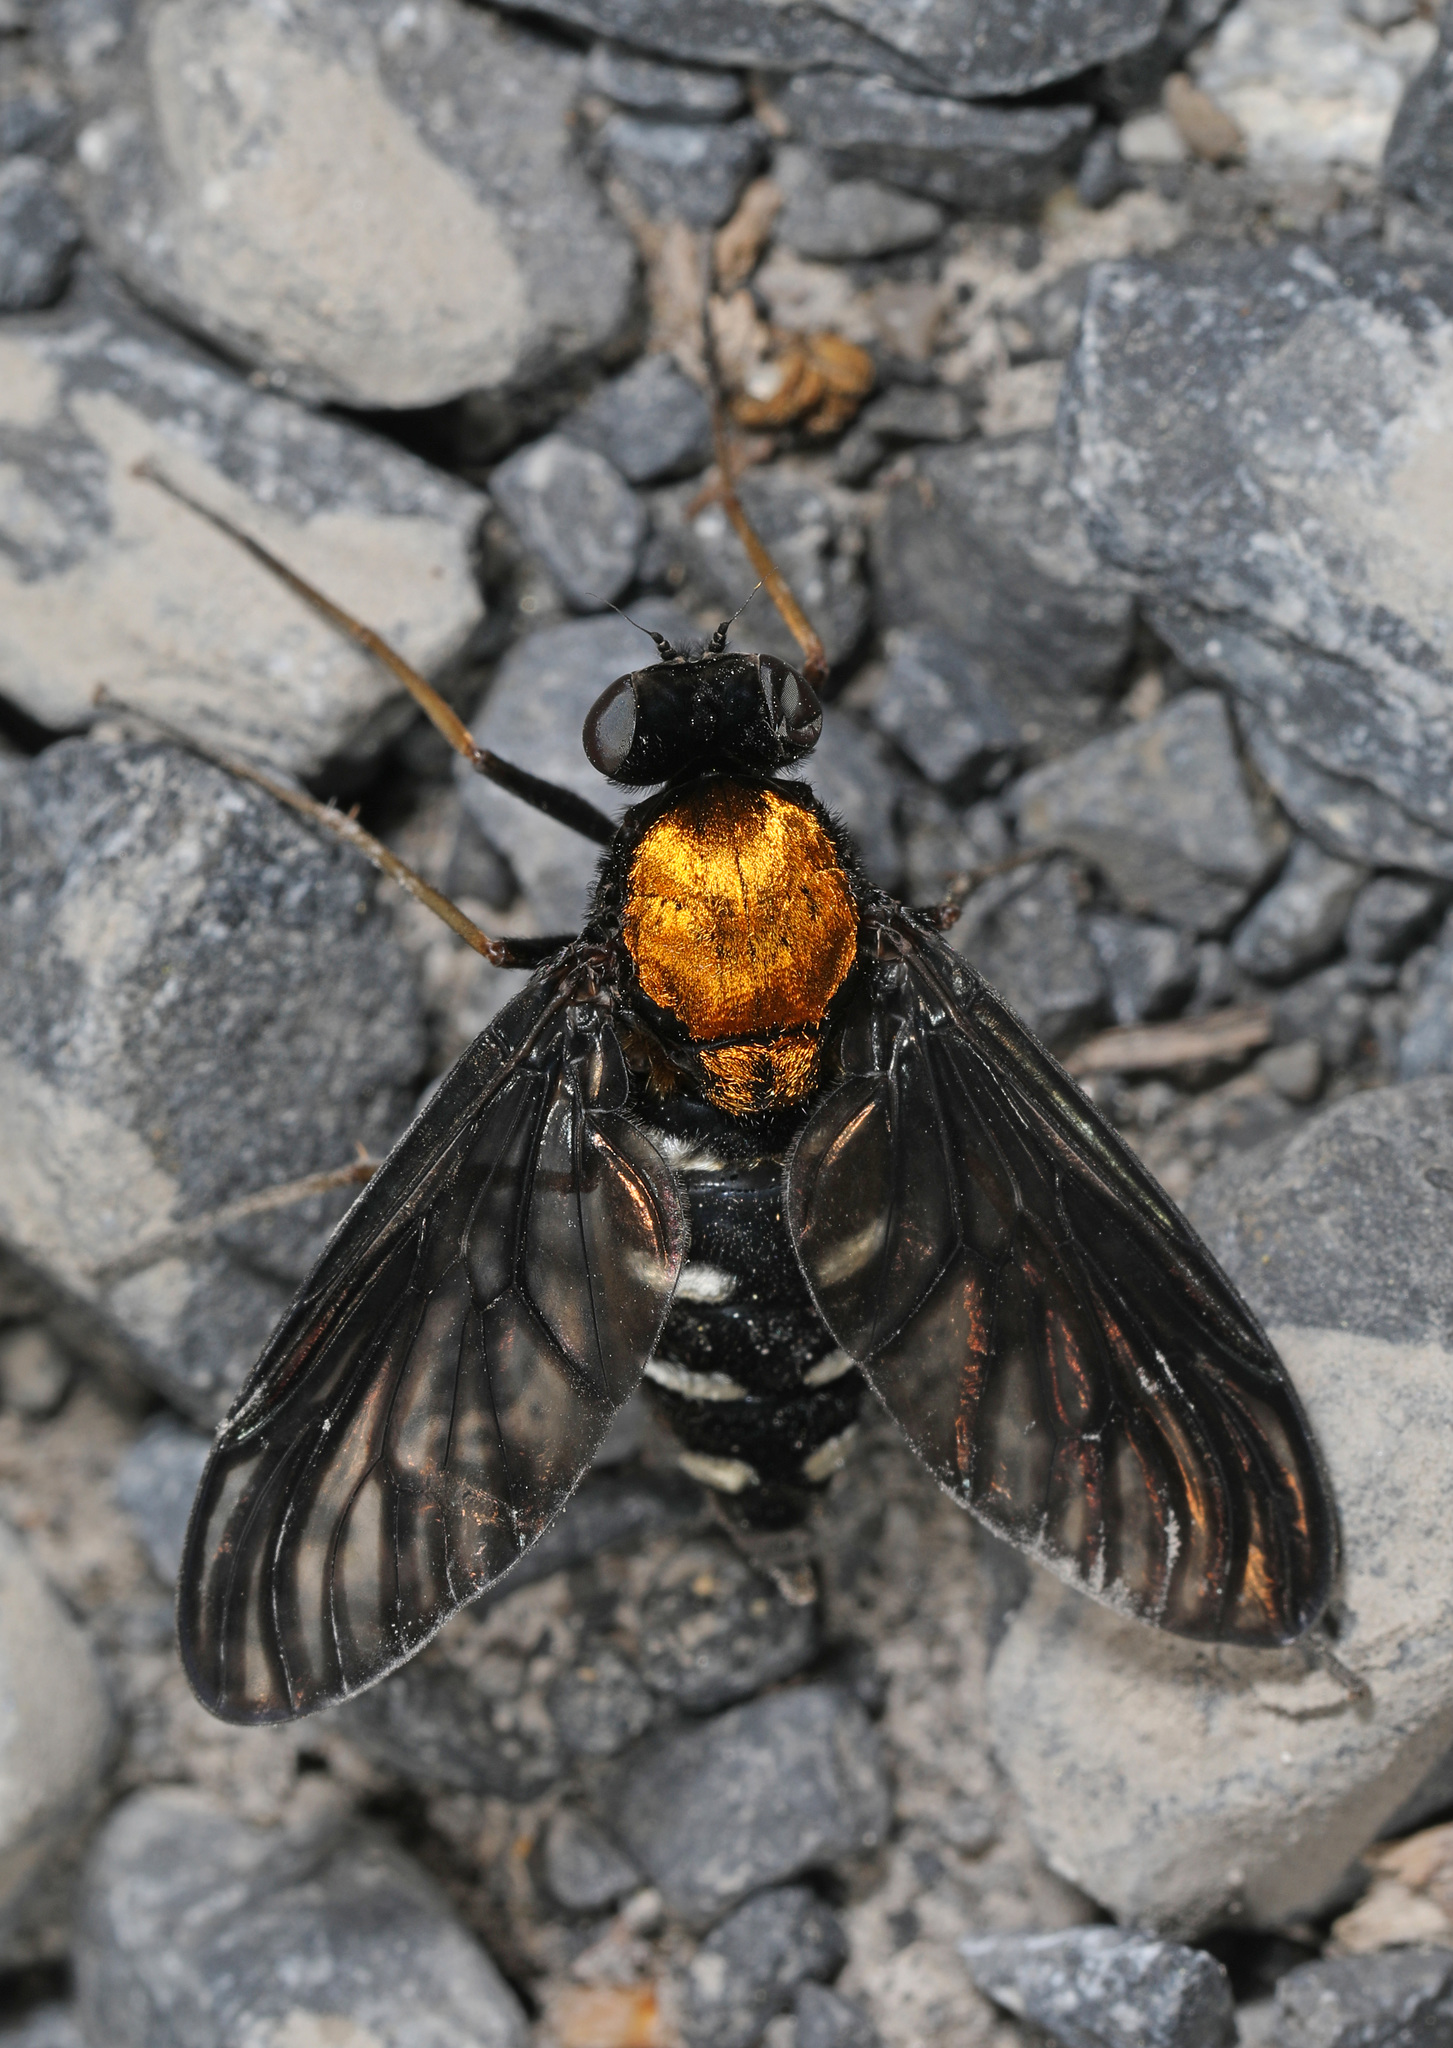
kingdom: Animalia
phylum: Arthropoda
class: Insecta
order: Diptera
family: Rhagionidae
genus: Chrysopilus
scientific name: Chrysopilus thoracicus
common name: Golden-backed snipe fly
